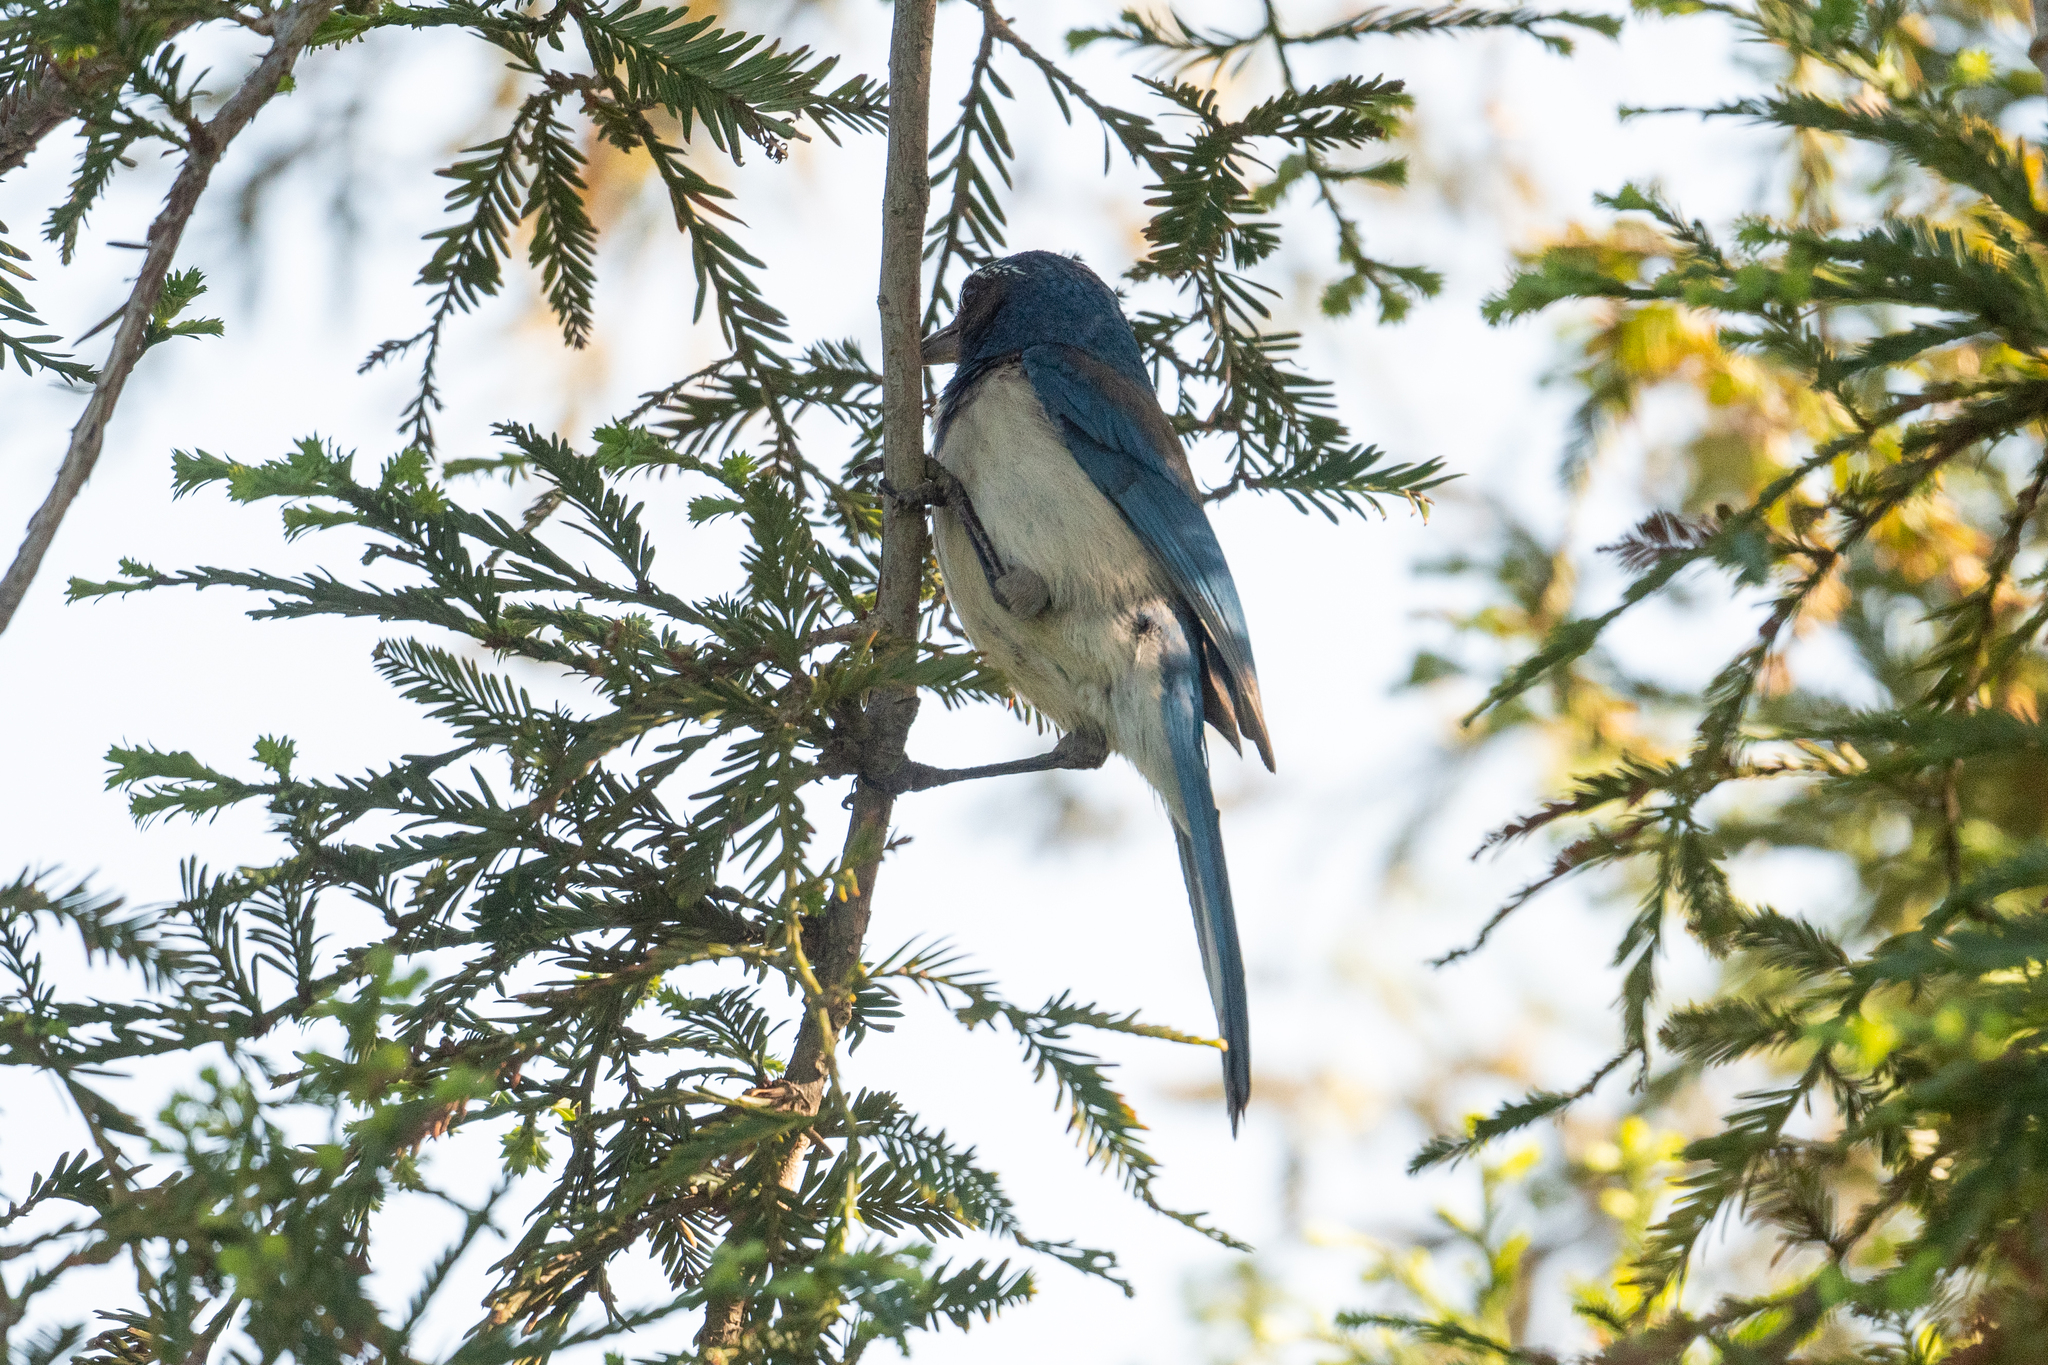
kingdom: Animalia
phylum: Chordata
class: Aves
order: Passeriformes
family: Corvidae
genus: Aphelocoma
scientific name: Aphelocoma californica
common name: California scrub-jay
